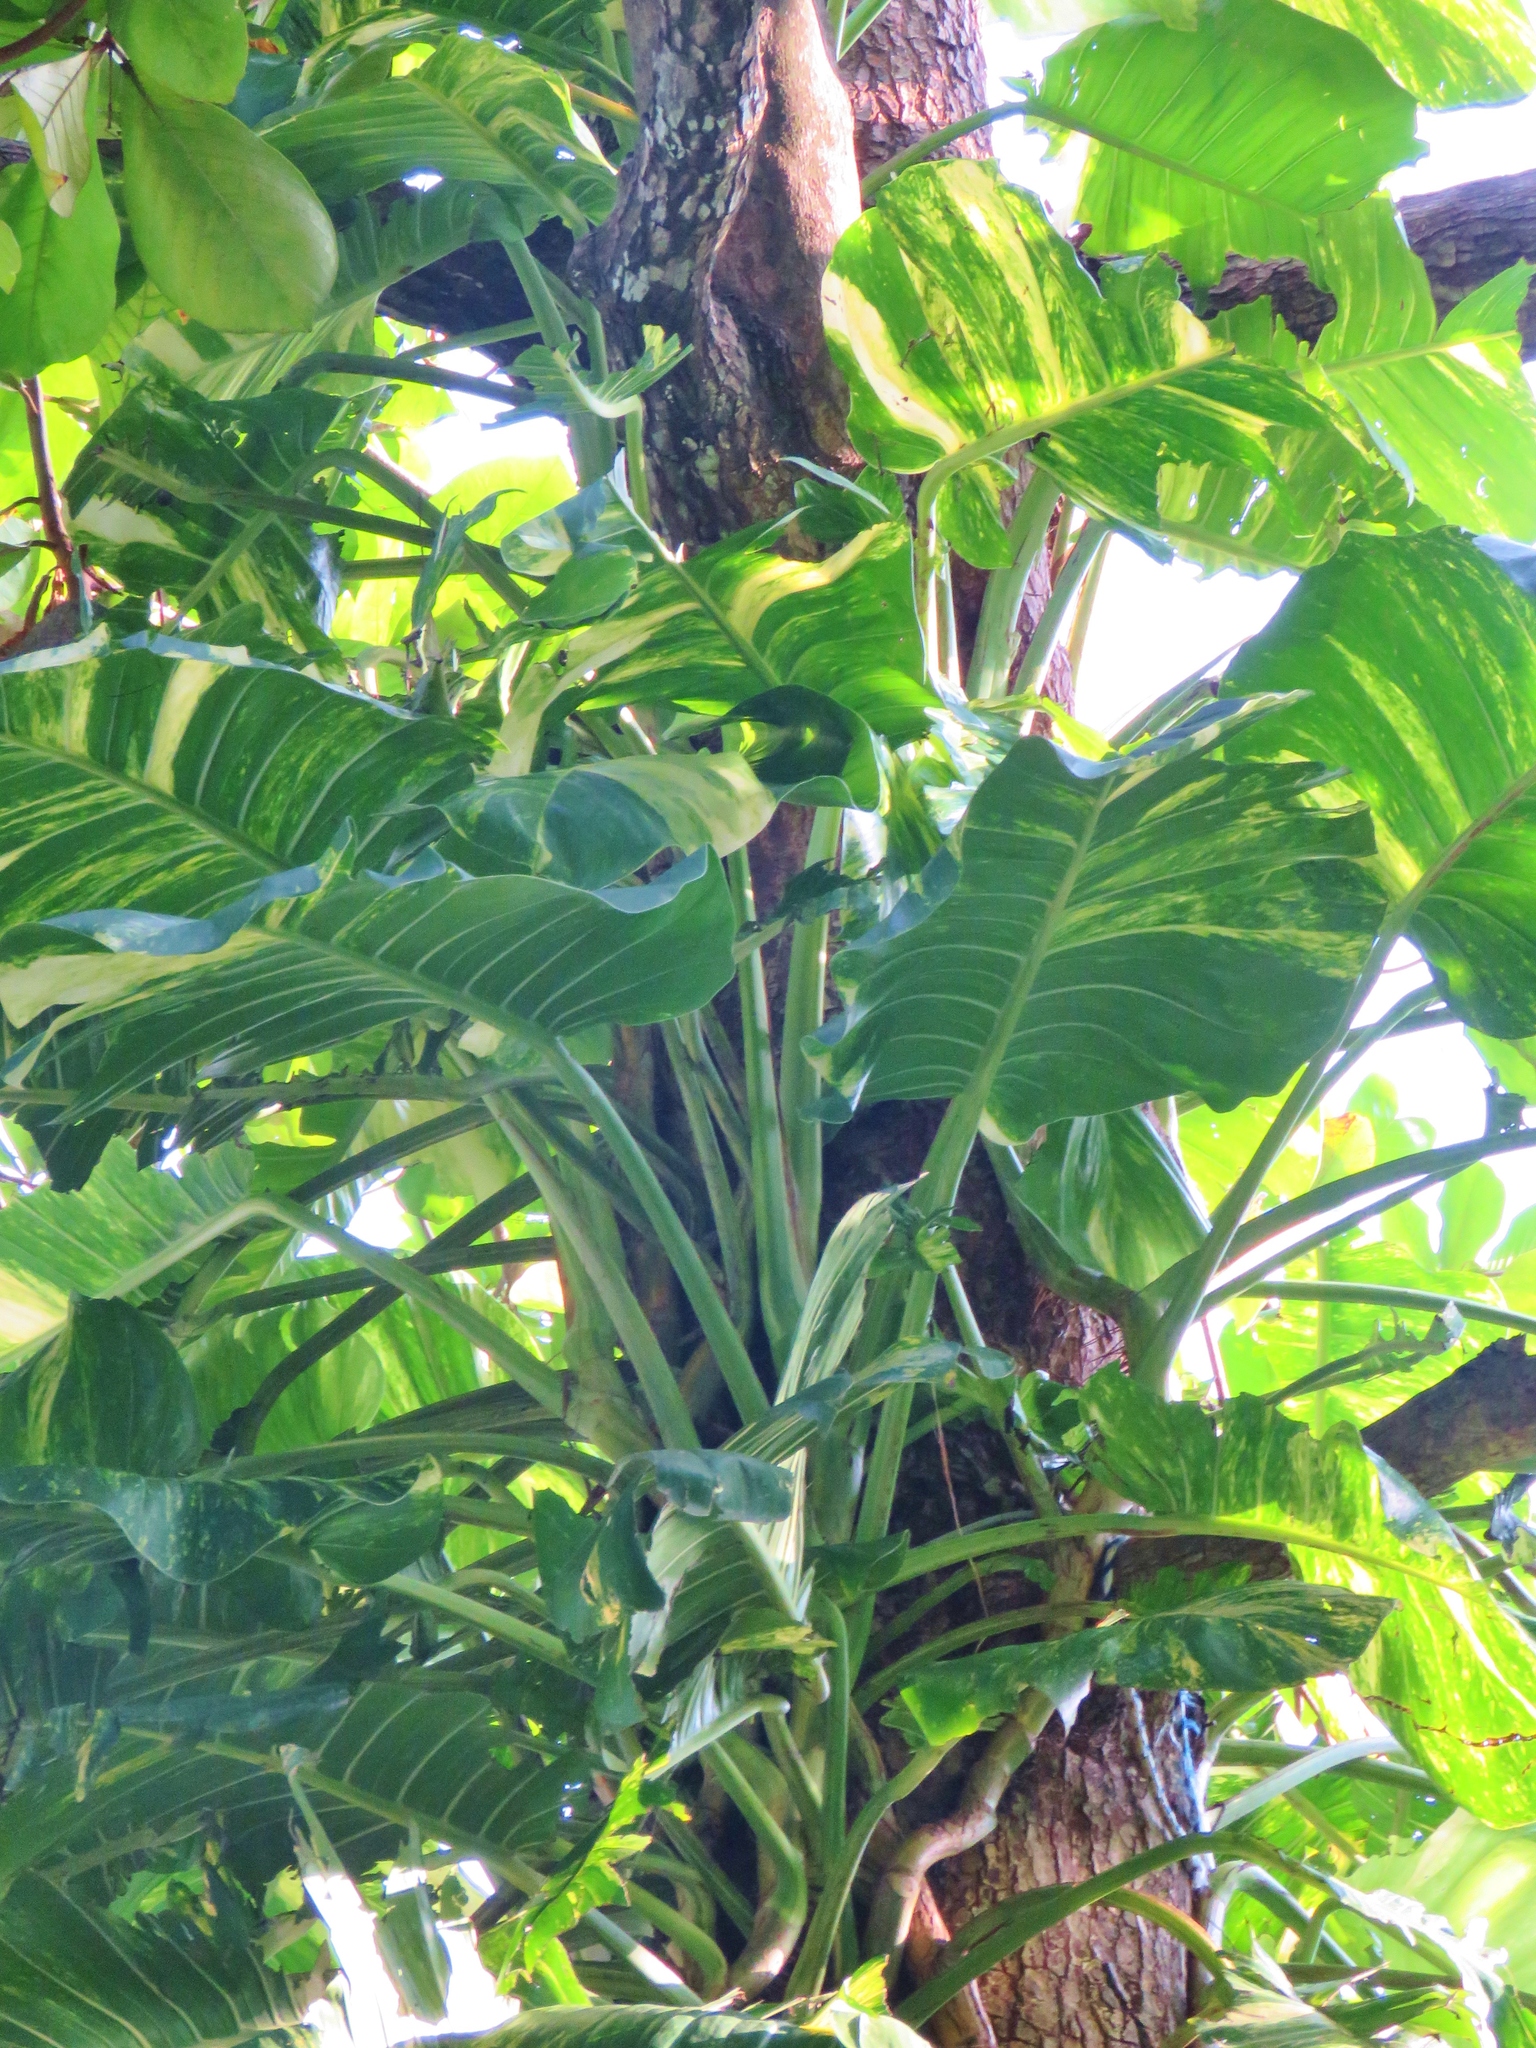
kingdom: Plantae
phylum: Tracheophyta
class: Liliopsida
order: Alismatales
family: Araceae
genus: Epipremnum
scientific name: Epipremnum aureum
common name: Golden hunter's-robe
